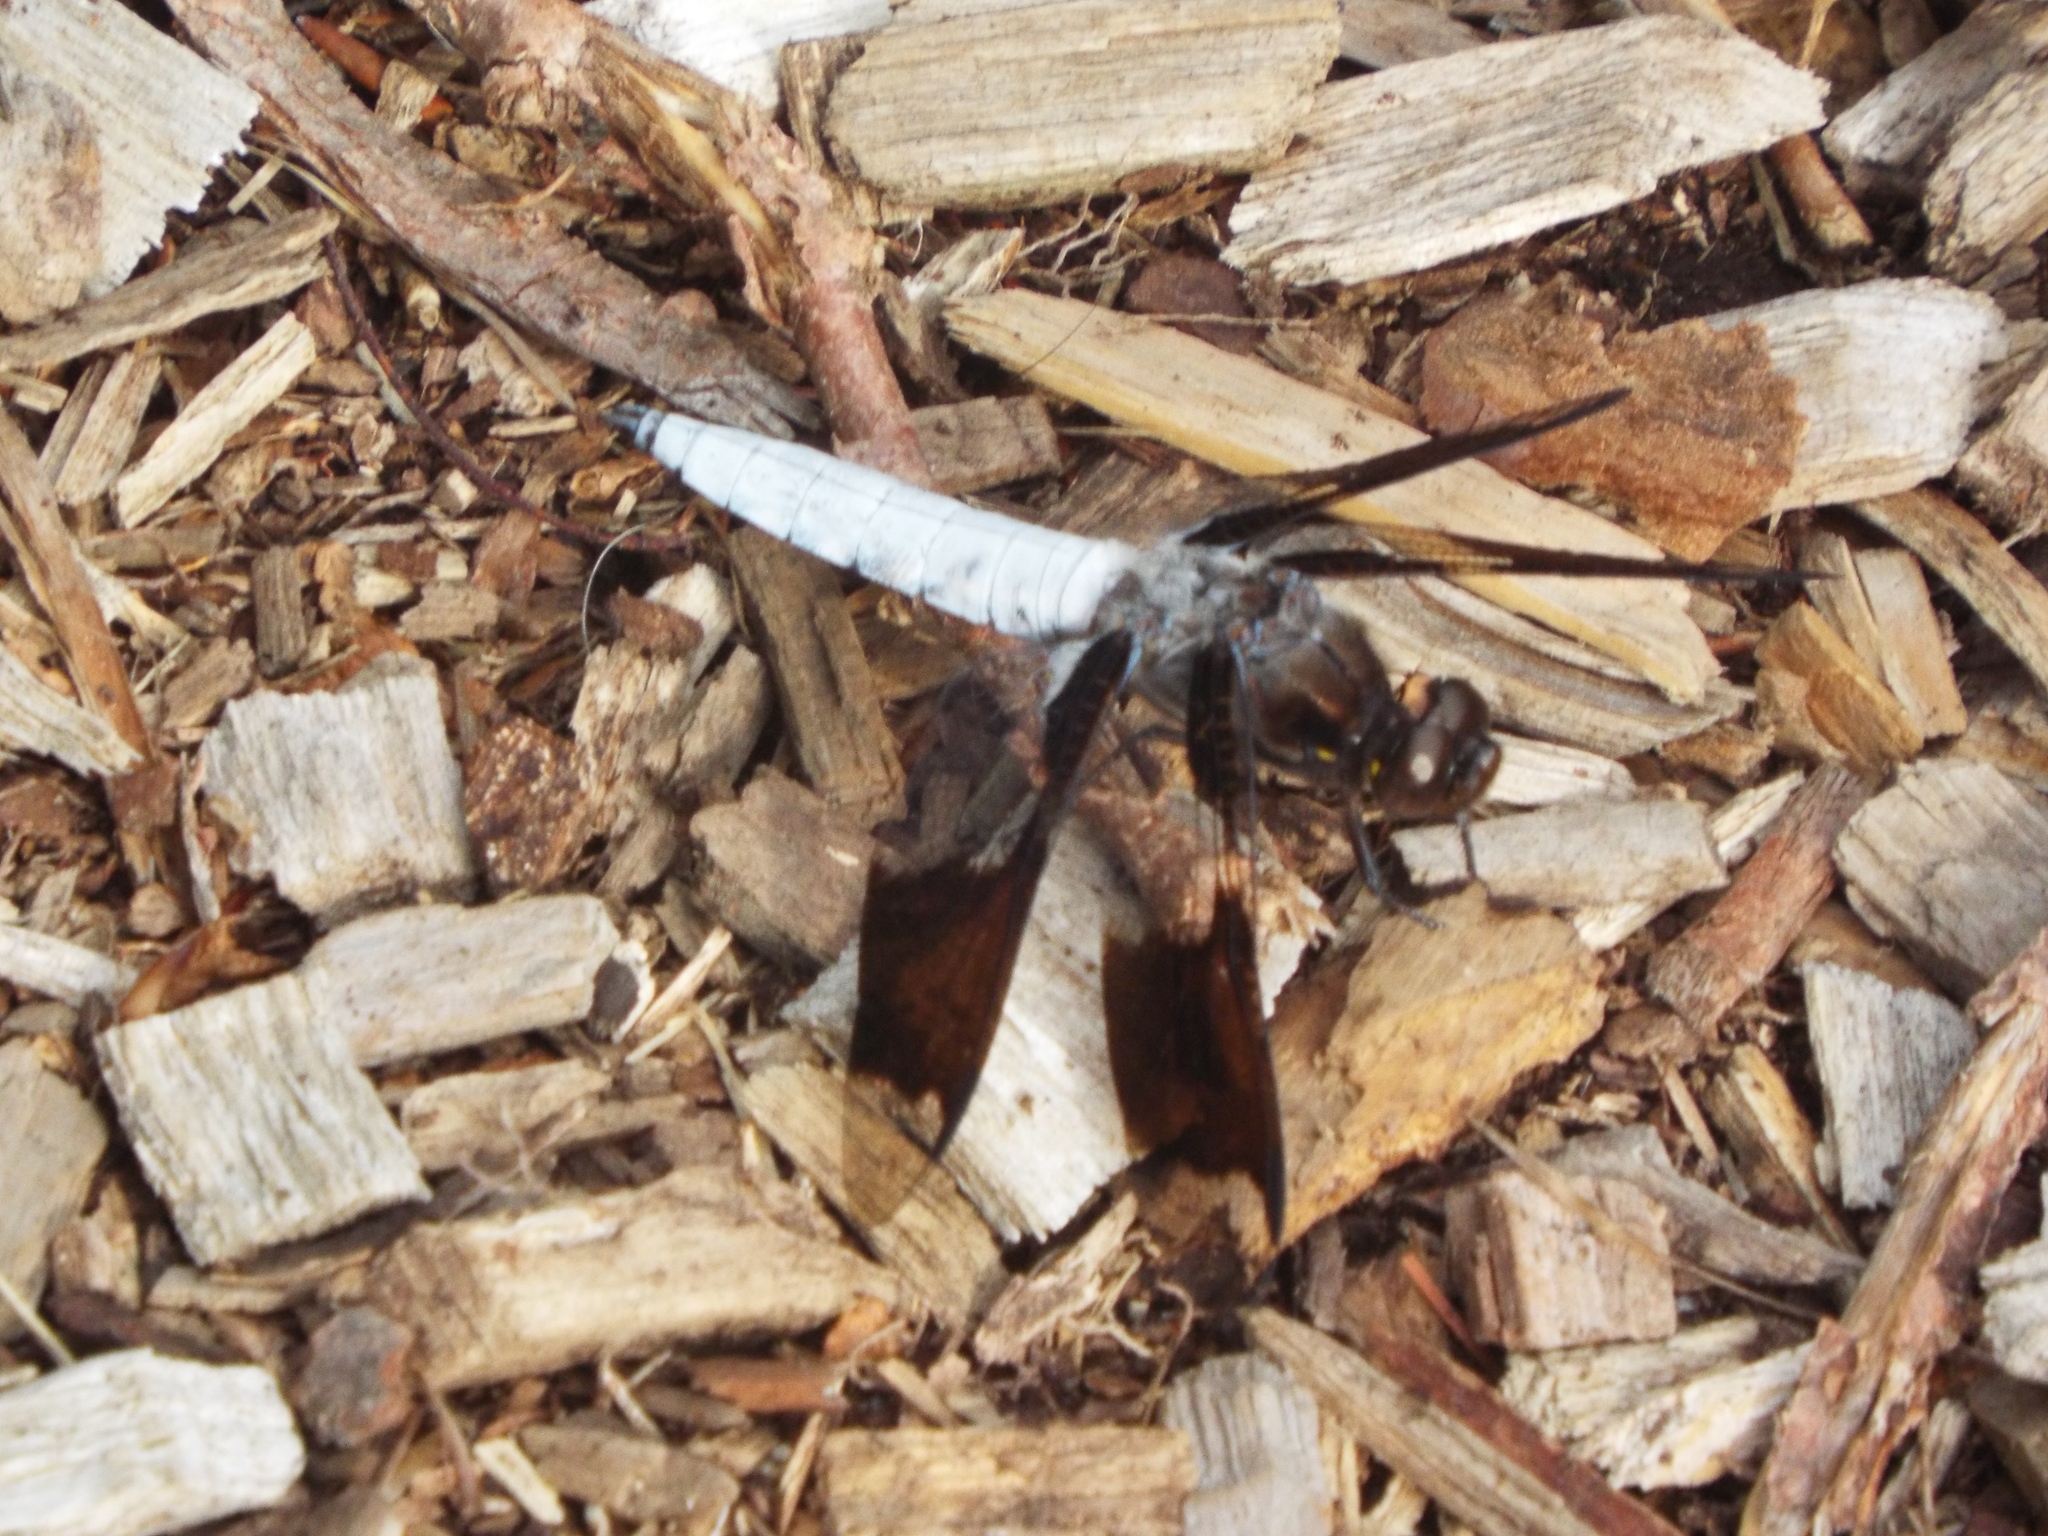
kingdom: Animalia
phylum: Arthropoda
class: Insecta
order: Odonata
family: Libellulidae
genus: Plathemis
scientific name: Plathemis lydia
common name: Common whitetail
